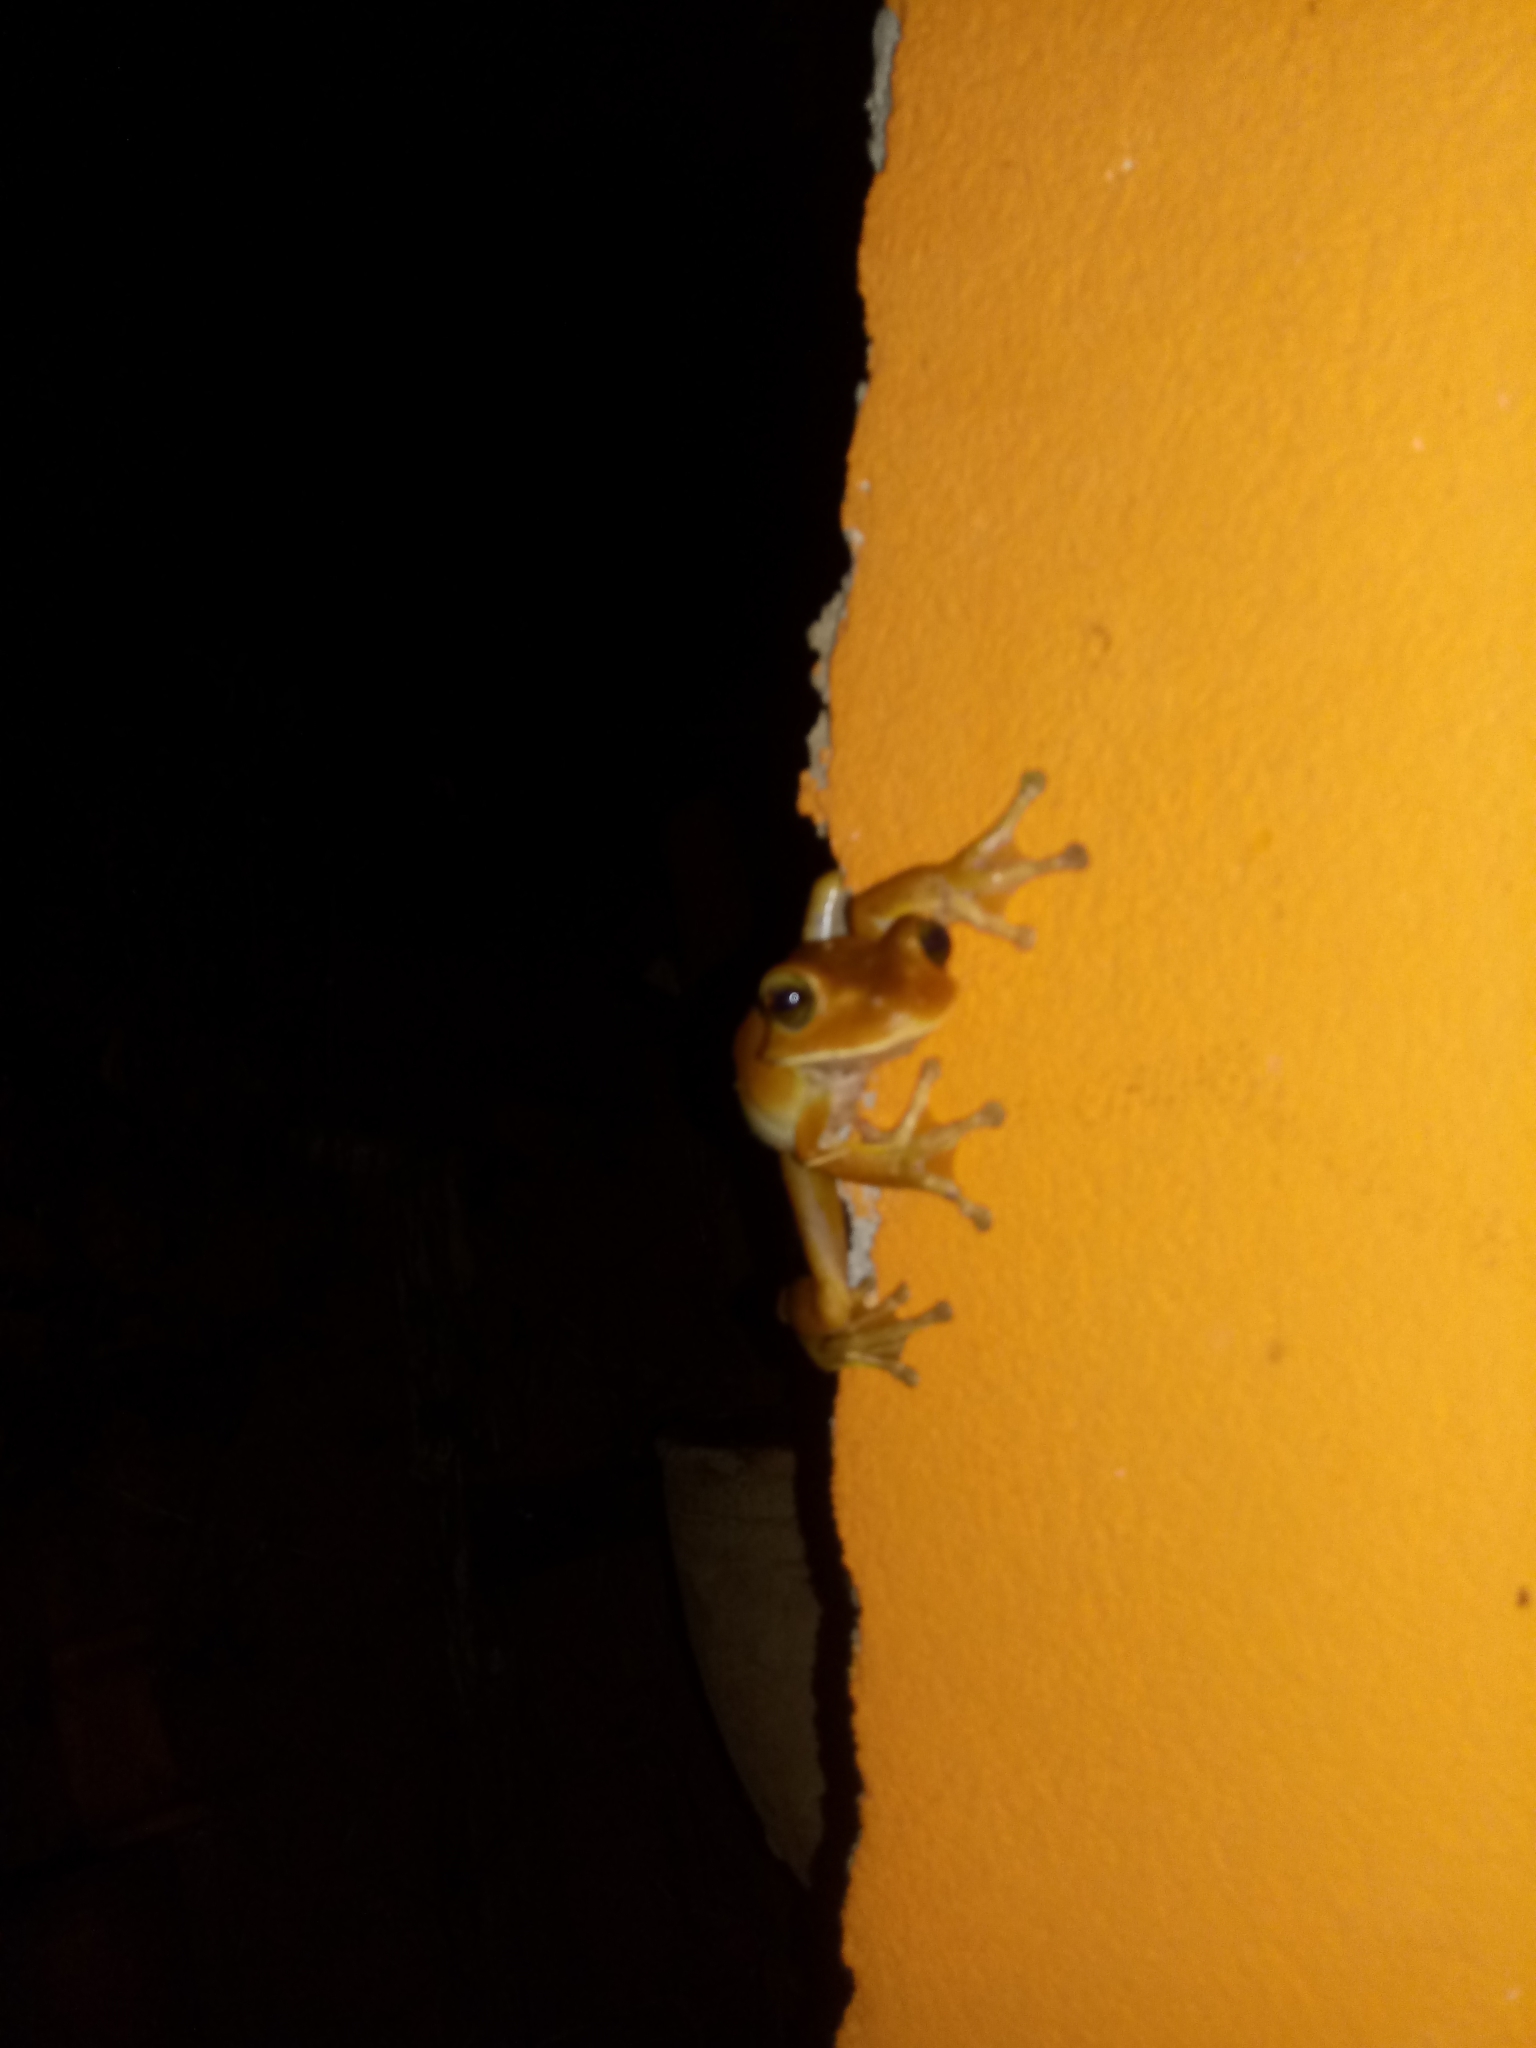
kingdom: Animalia
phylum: Chordata
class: Amphibia
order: Anura
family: Hylidae
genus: Boana
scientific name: Boana faber
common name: Blacksmith tree frog
